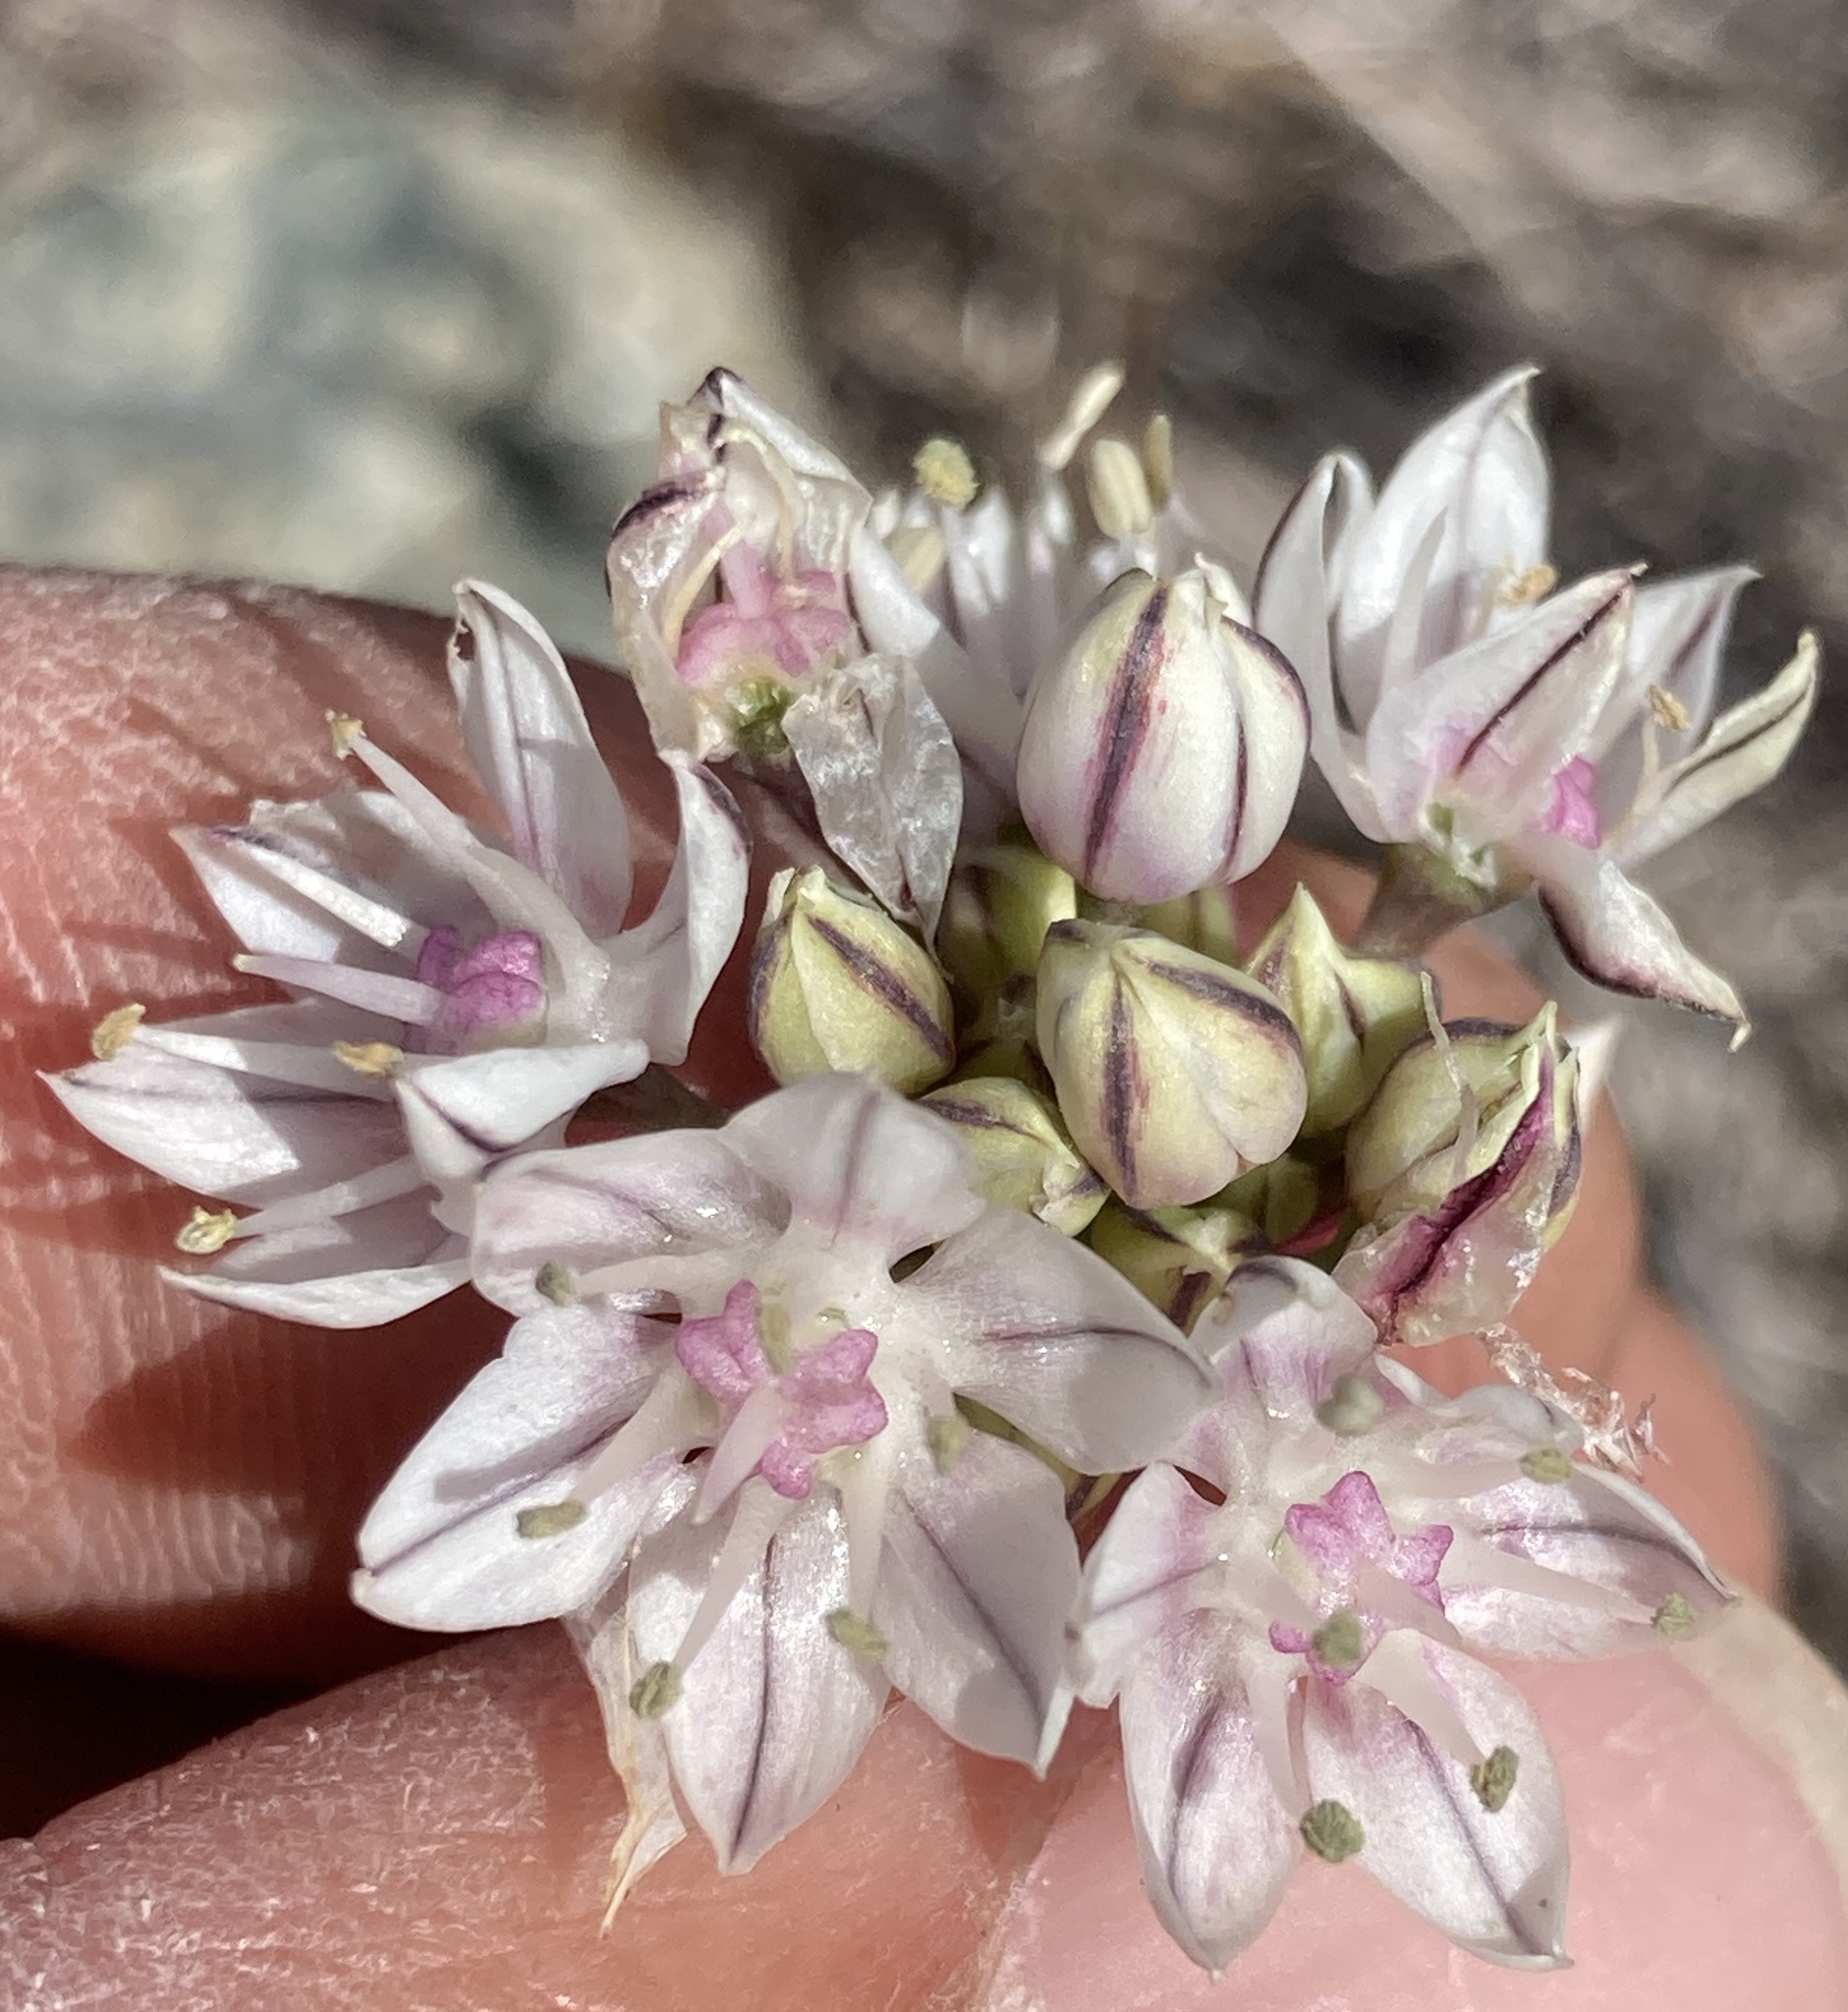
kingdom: Plantae
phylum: Tracheophyta
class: Liliopsida
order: Asparagales
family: Amaryllidaceae
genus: Allium
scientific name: Allium haematochiton
